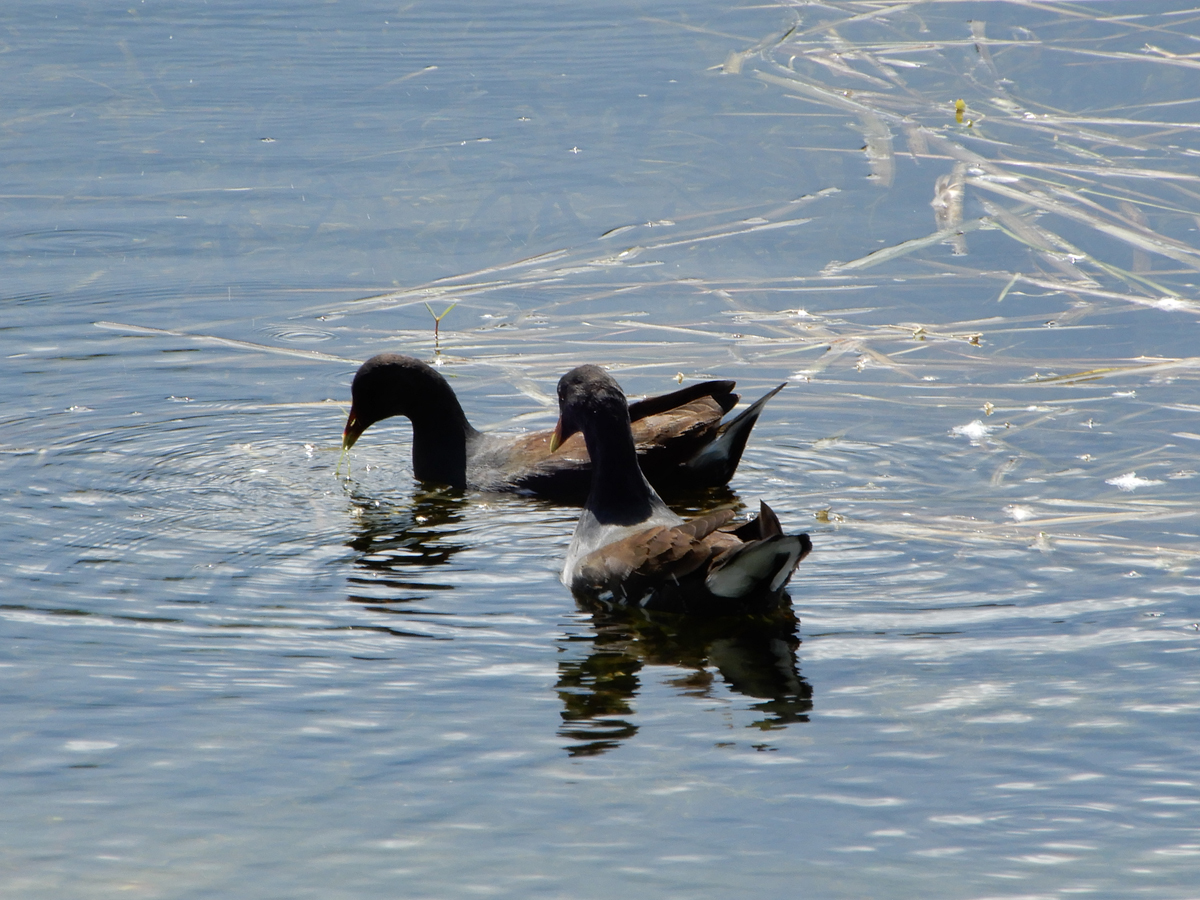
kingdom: Animalia
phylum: Chordata
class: Aves
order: Gruiformes
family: Rallidae
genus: Gallinula
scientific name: Gallinula chloropus
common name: Common moorhen
